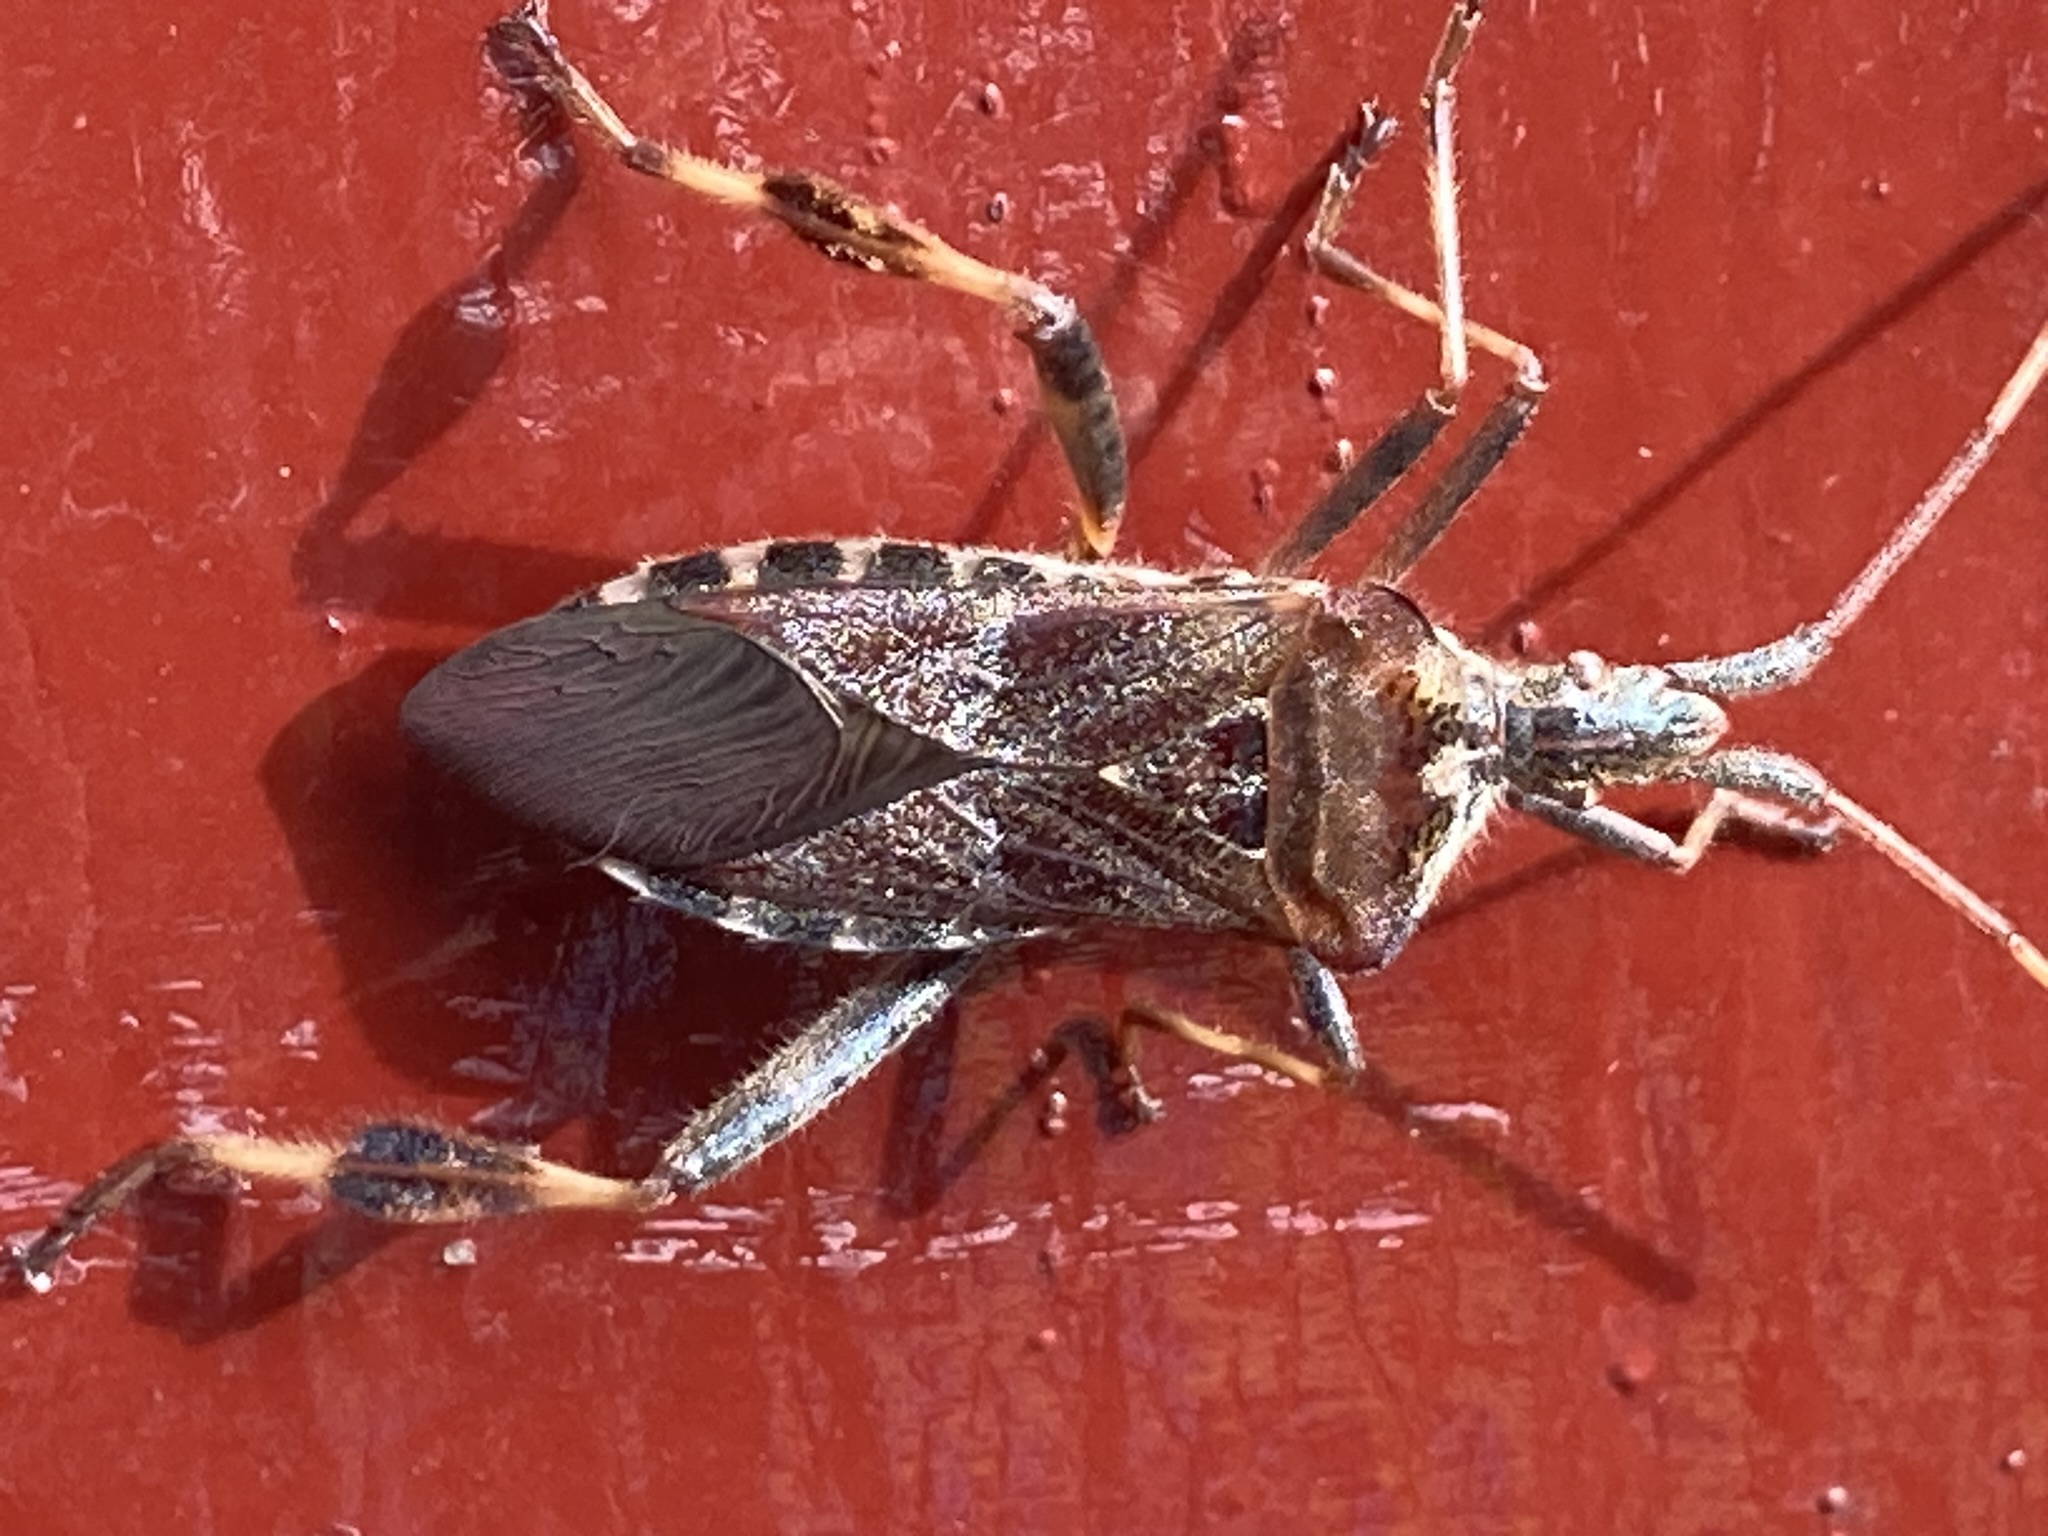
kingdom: Animalia
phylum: Arthropoda
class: Insecta
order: Hemiptera
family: Coreidae
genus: Leptoglossus
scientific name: Leptoglossus occidentalis
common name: Western conifer-seed bug
